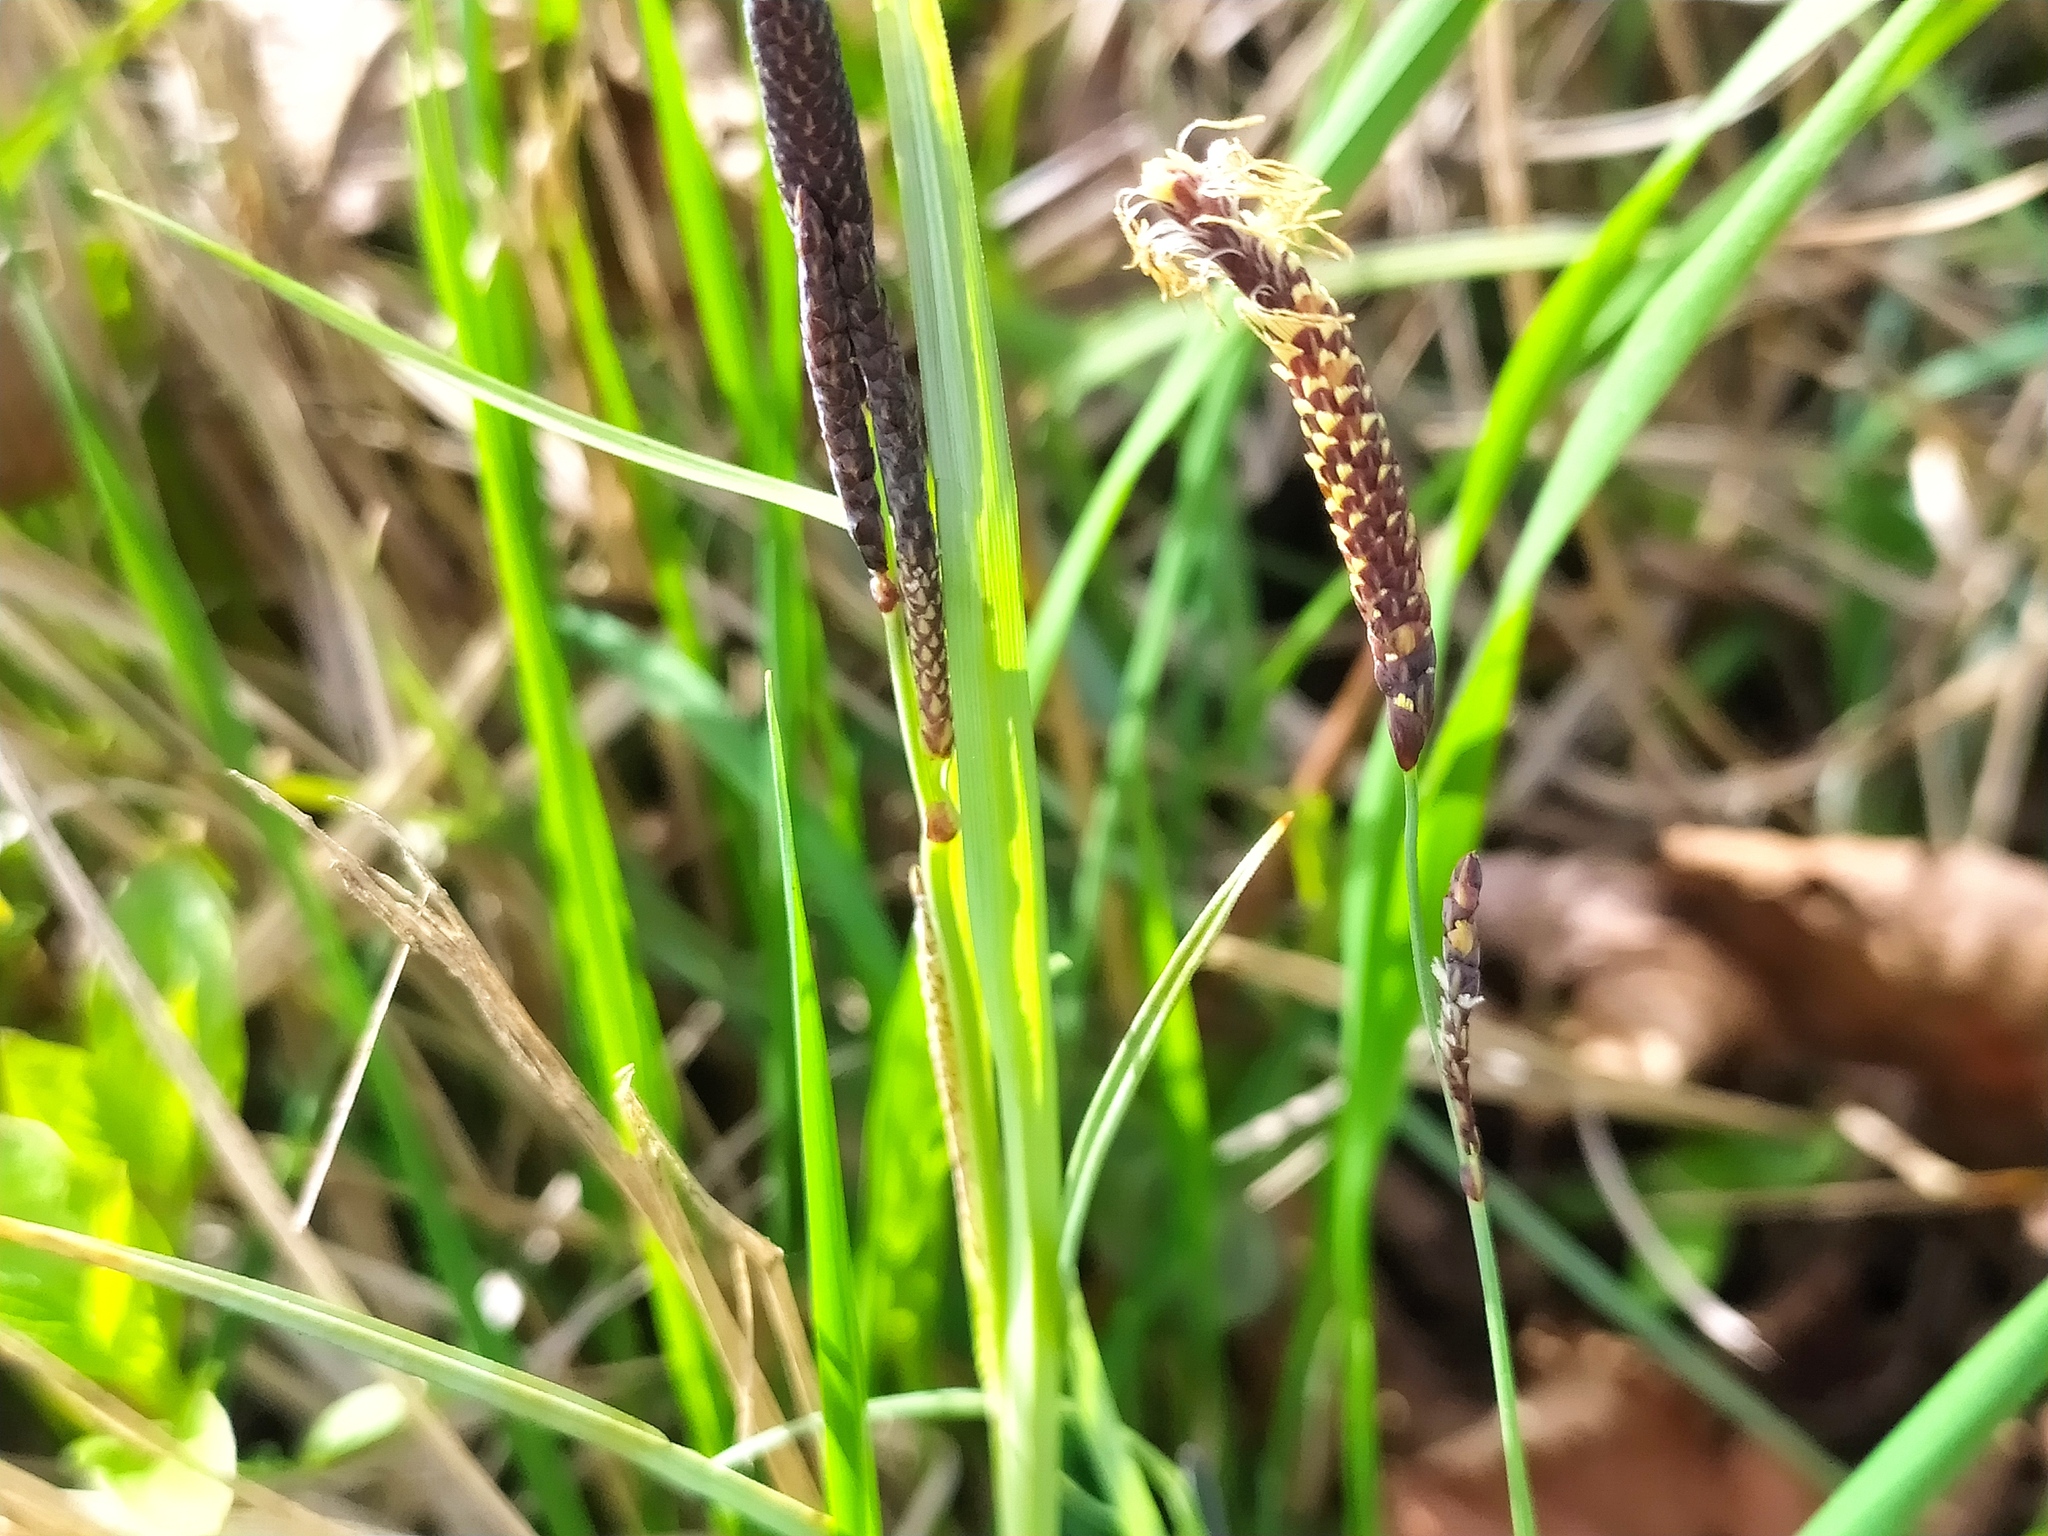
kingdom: Plantae
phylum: Tracheophyta
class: Liliopsida
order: Poales
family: Cyperaceae
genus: Carex
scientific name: Carex flacca
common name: Glaucous sedge
